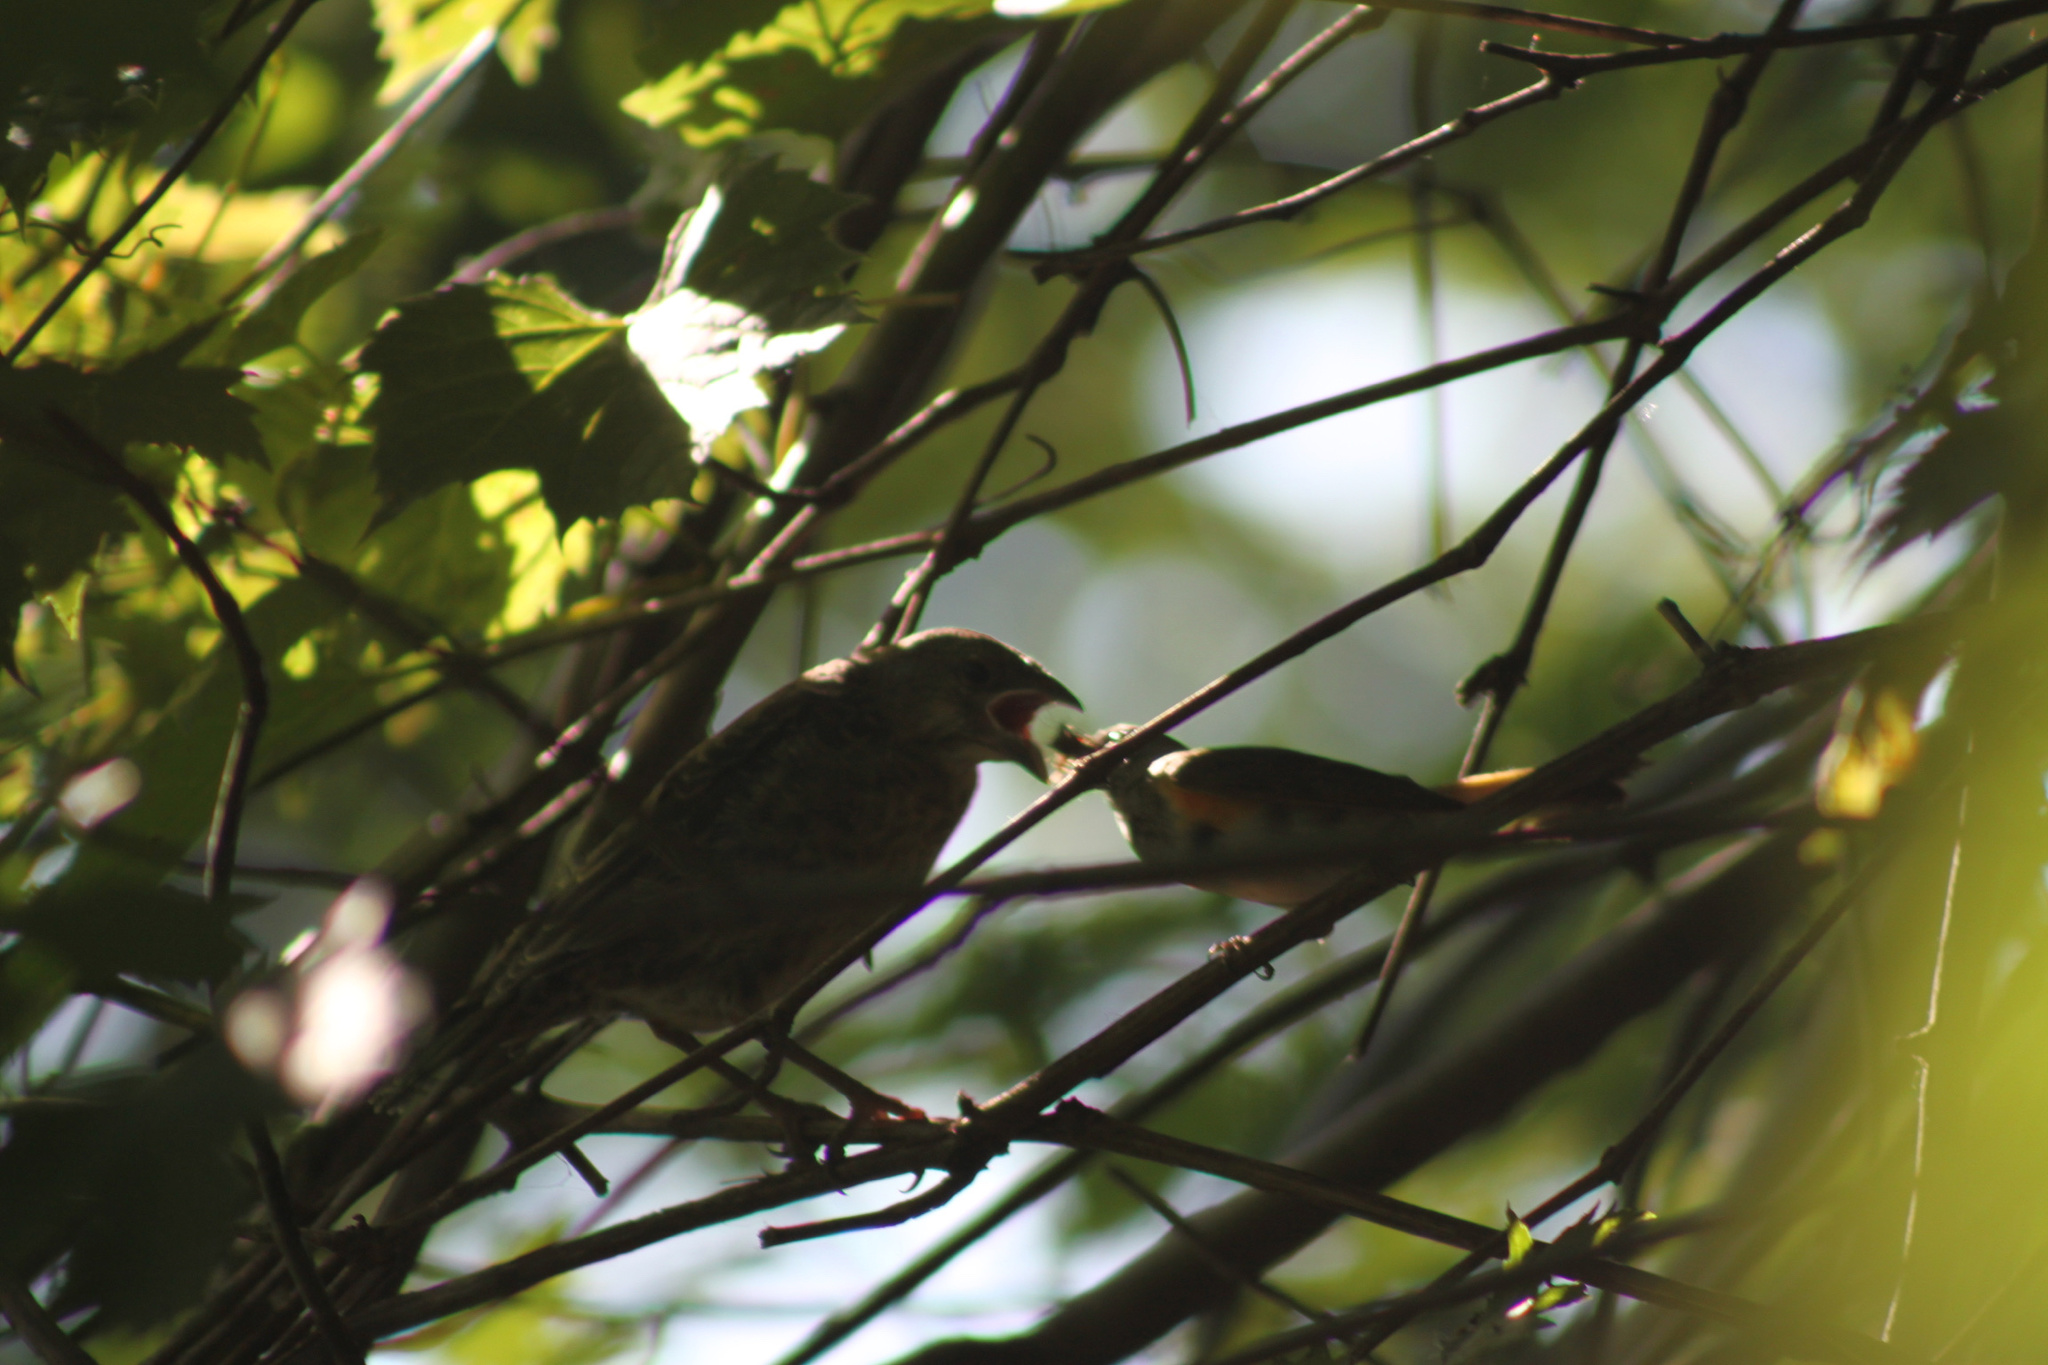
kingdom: Animalia
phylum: Chordata
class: Aves
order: Passeriformes
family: Icteridae
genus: Molothrus
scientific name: Molothrus ater
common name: Brown-headed cowbird
